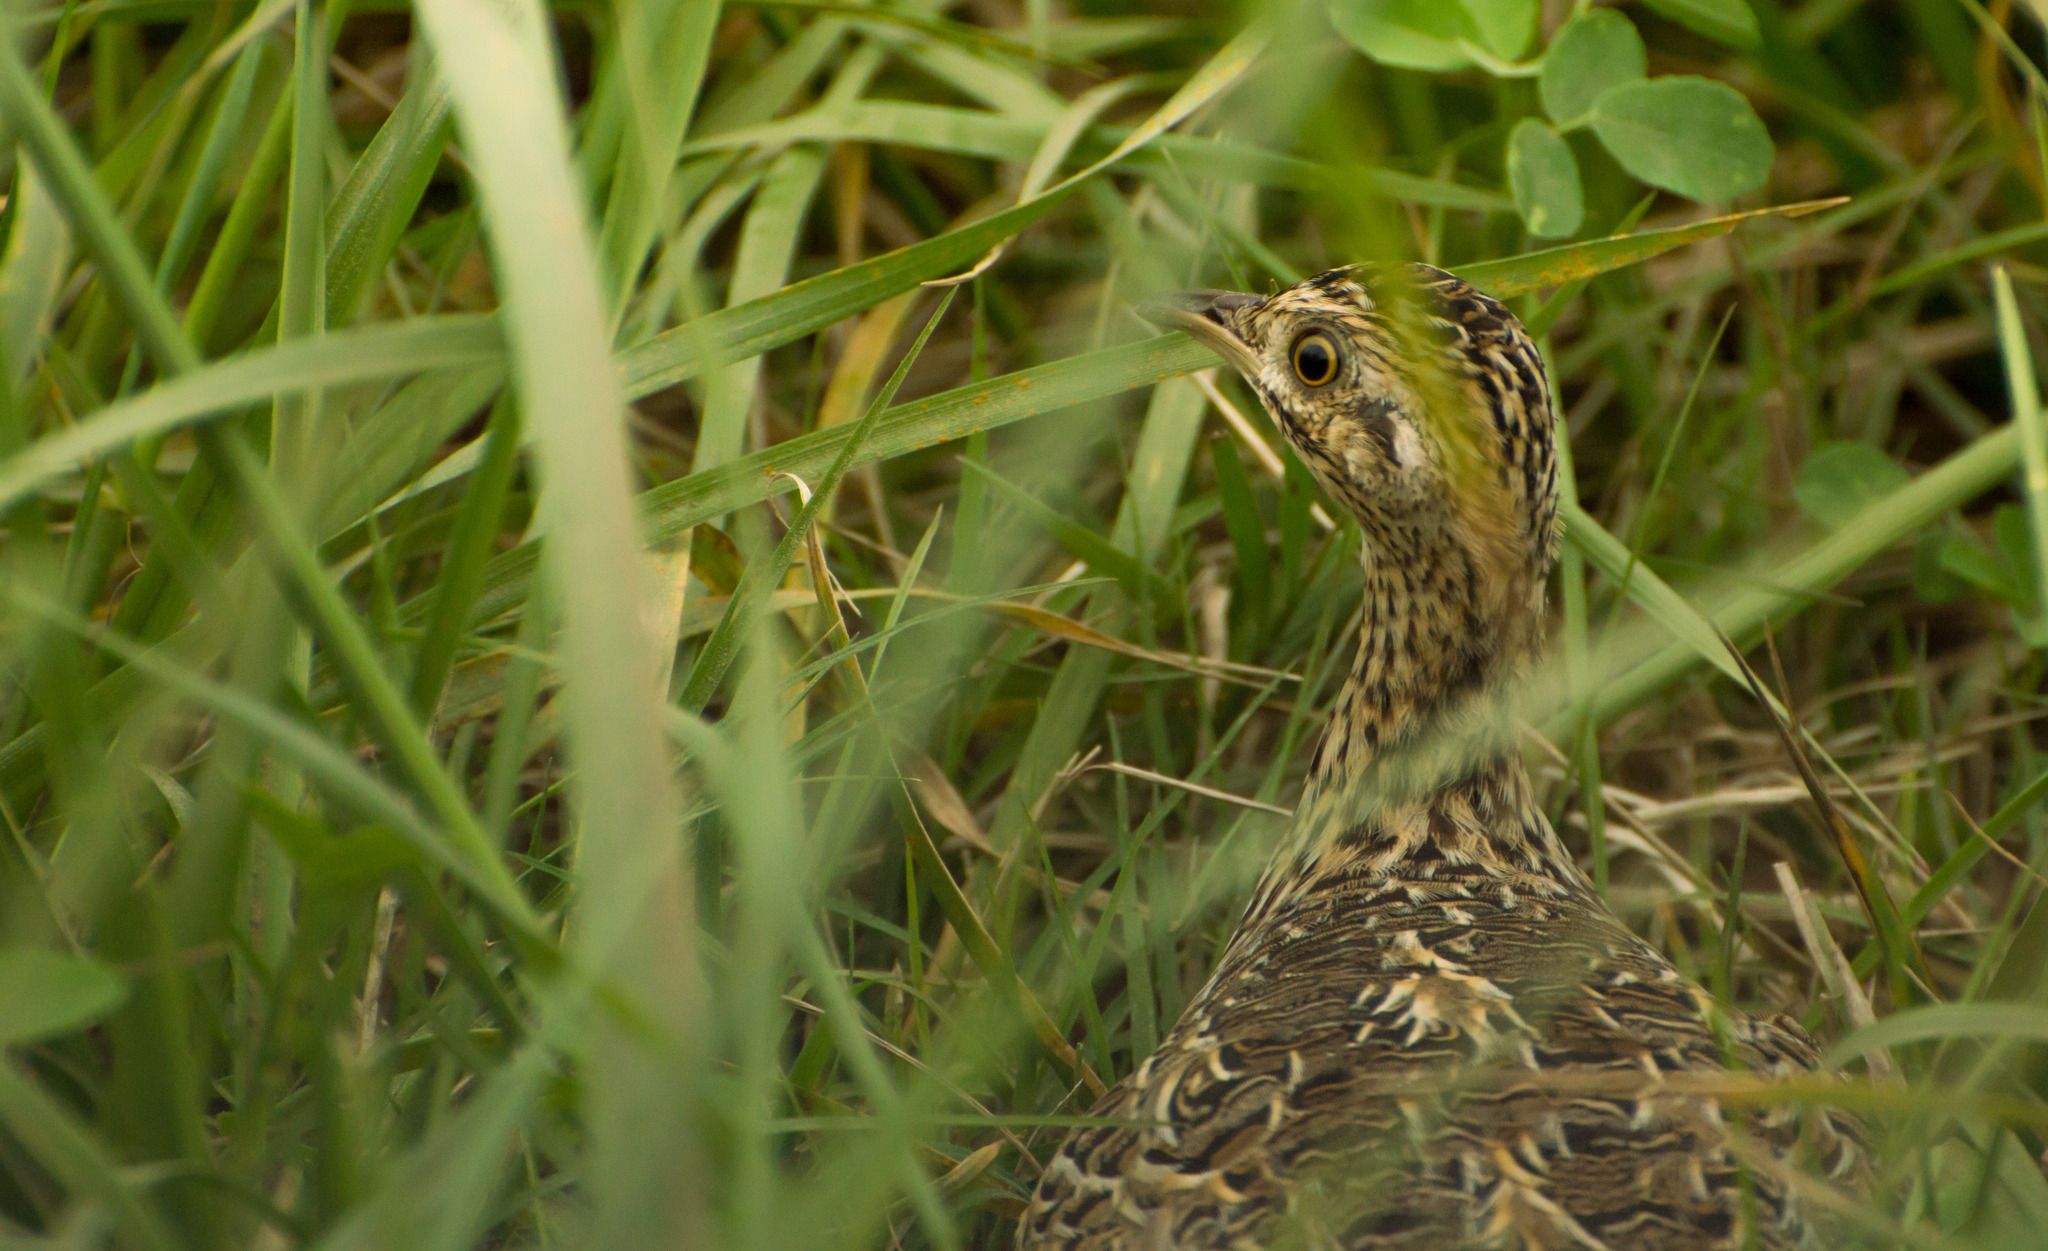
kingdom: Animalia
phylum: Chordata
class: Aves
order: Tinamiformes
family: Tinamidae
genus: Nothura
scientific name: Nothura maculosa
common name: Spotted nothura
